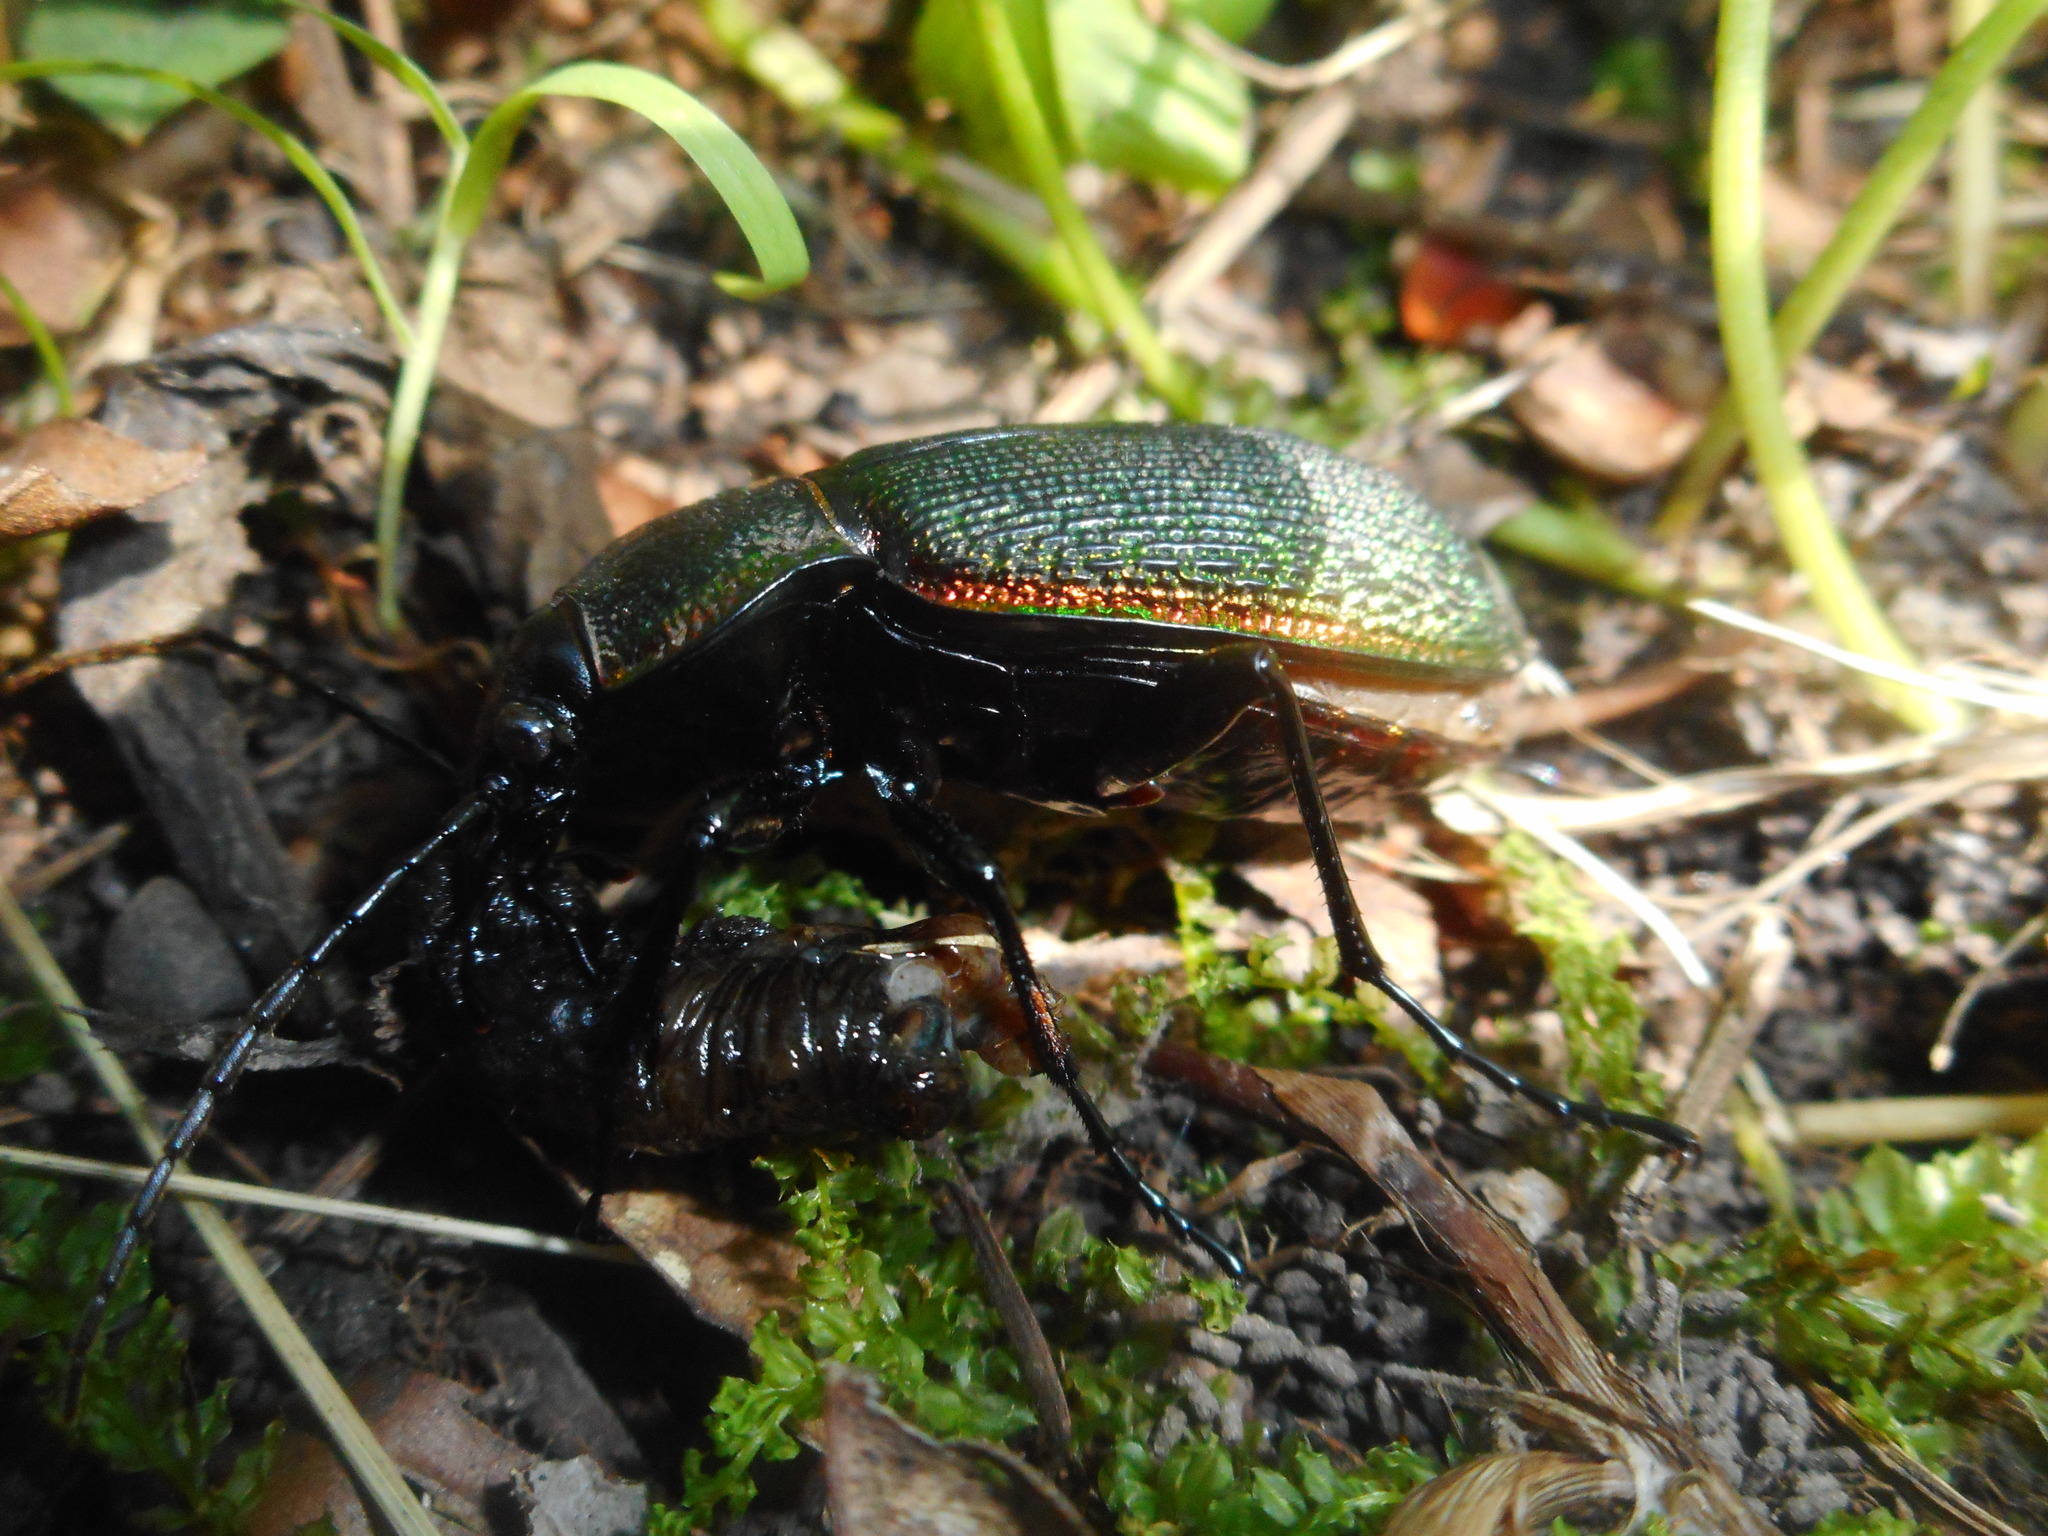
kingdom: Animalia
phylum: Arthropoda
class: Insecta
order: Coleoptera
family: Carabidae
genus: Carabus
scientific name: Carabus vietinghoffii
